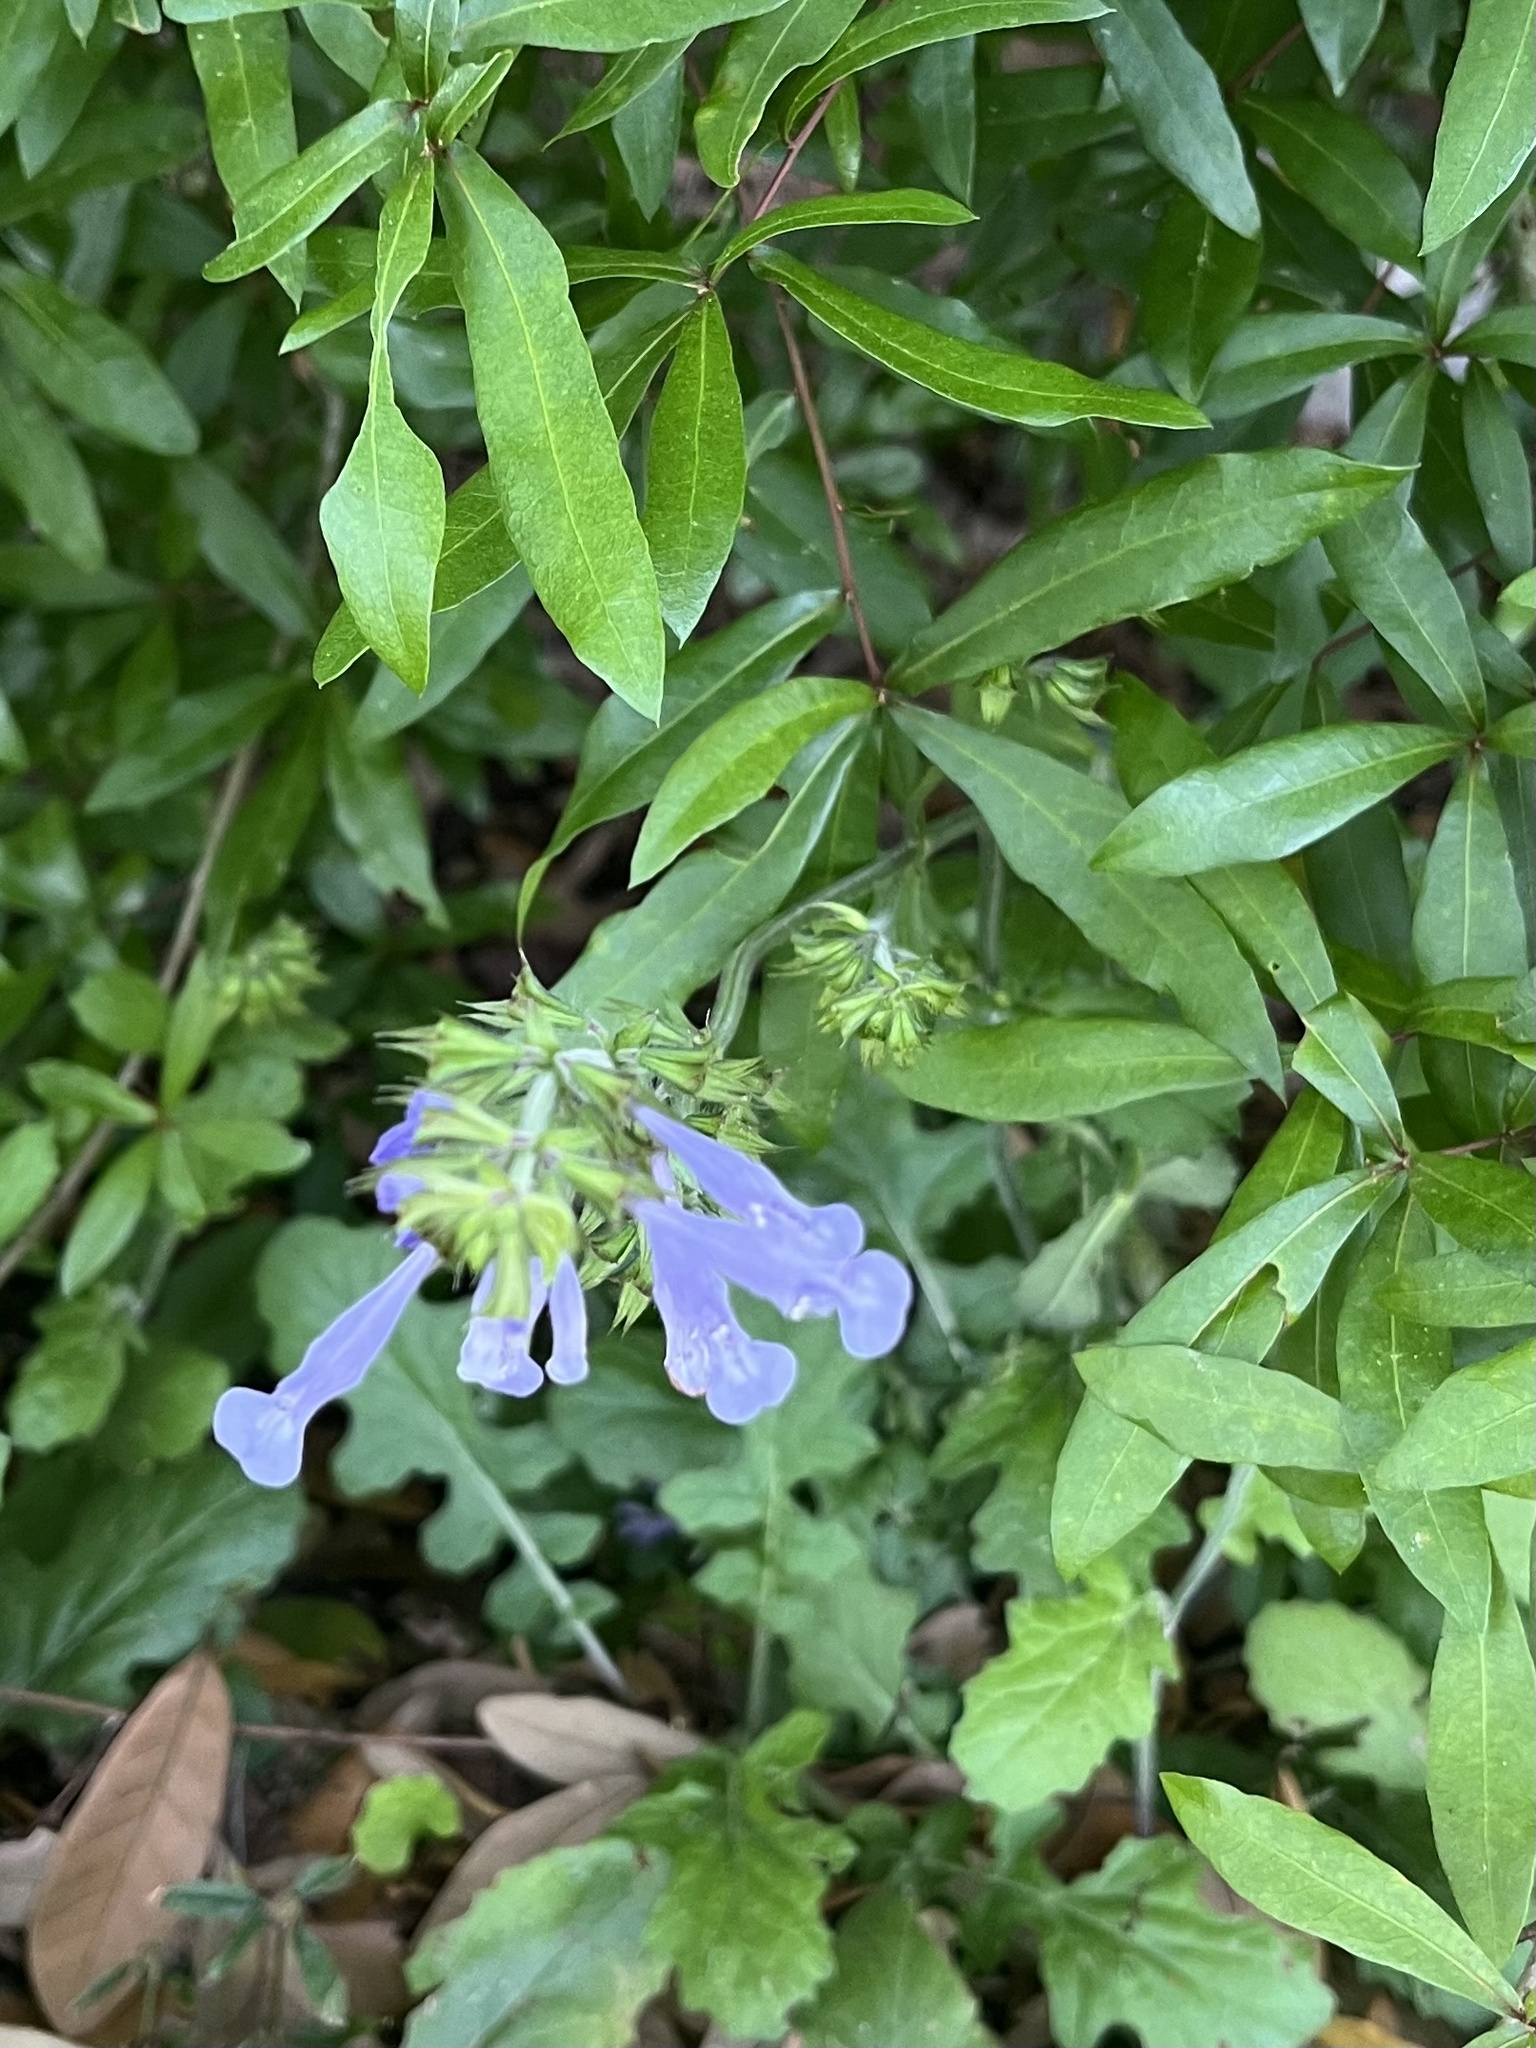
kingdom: Plantae
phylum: Tracheophyta
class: Magnoliopsida
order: Lamiales
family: Lamiaceae
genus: Salvia
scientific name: Salvia lyrata
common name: Cancerweed
